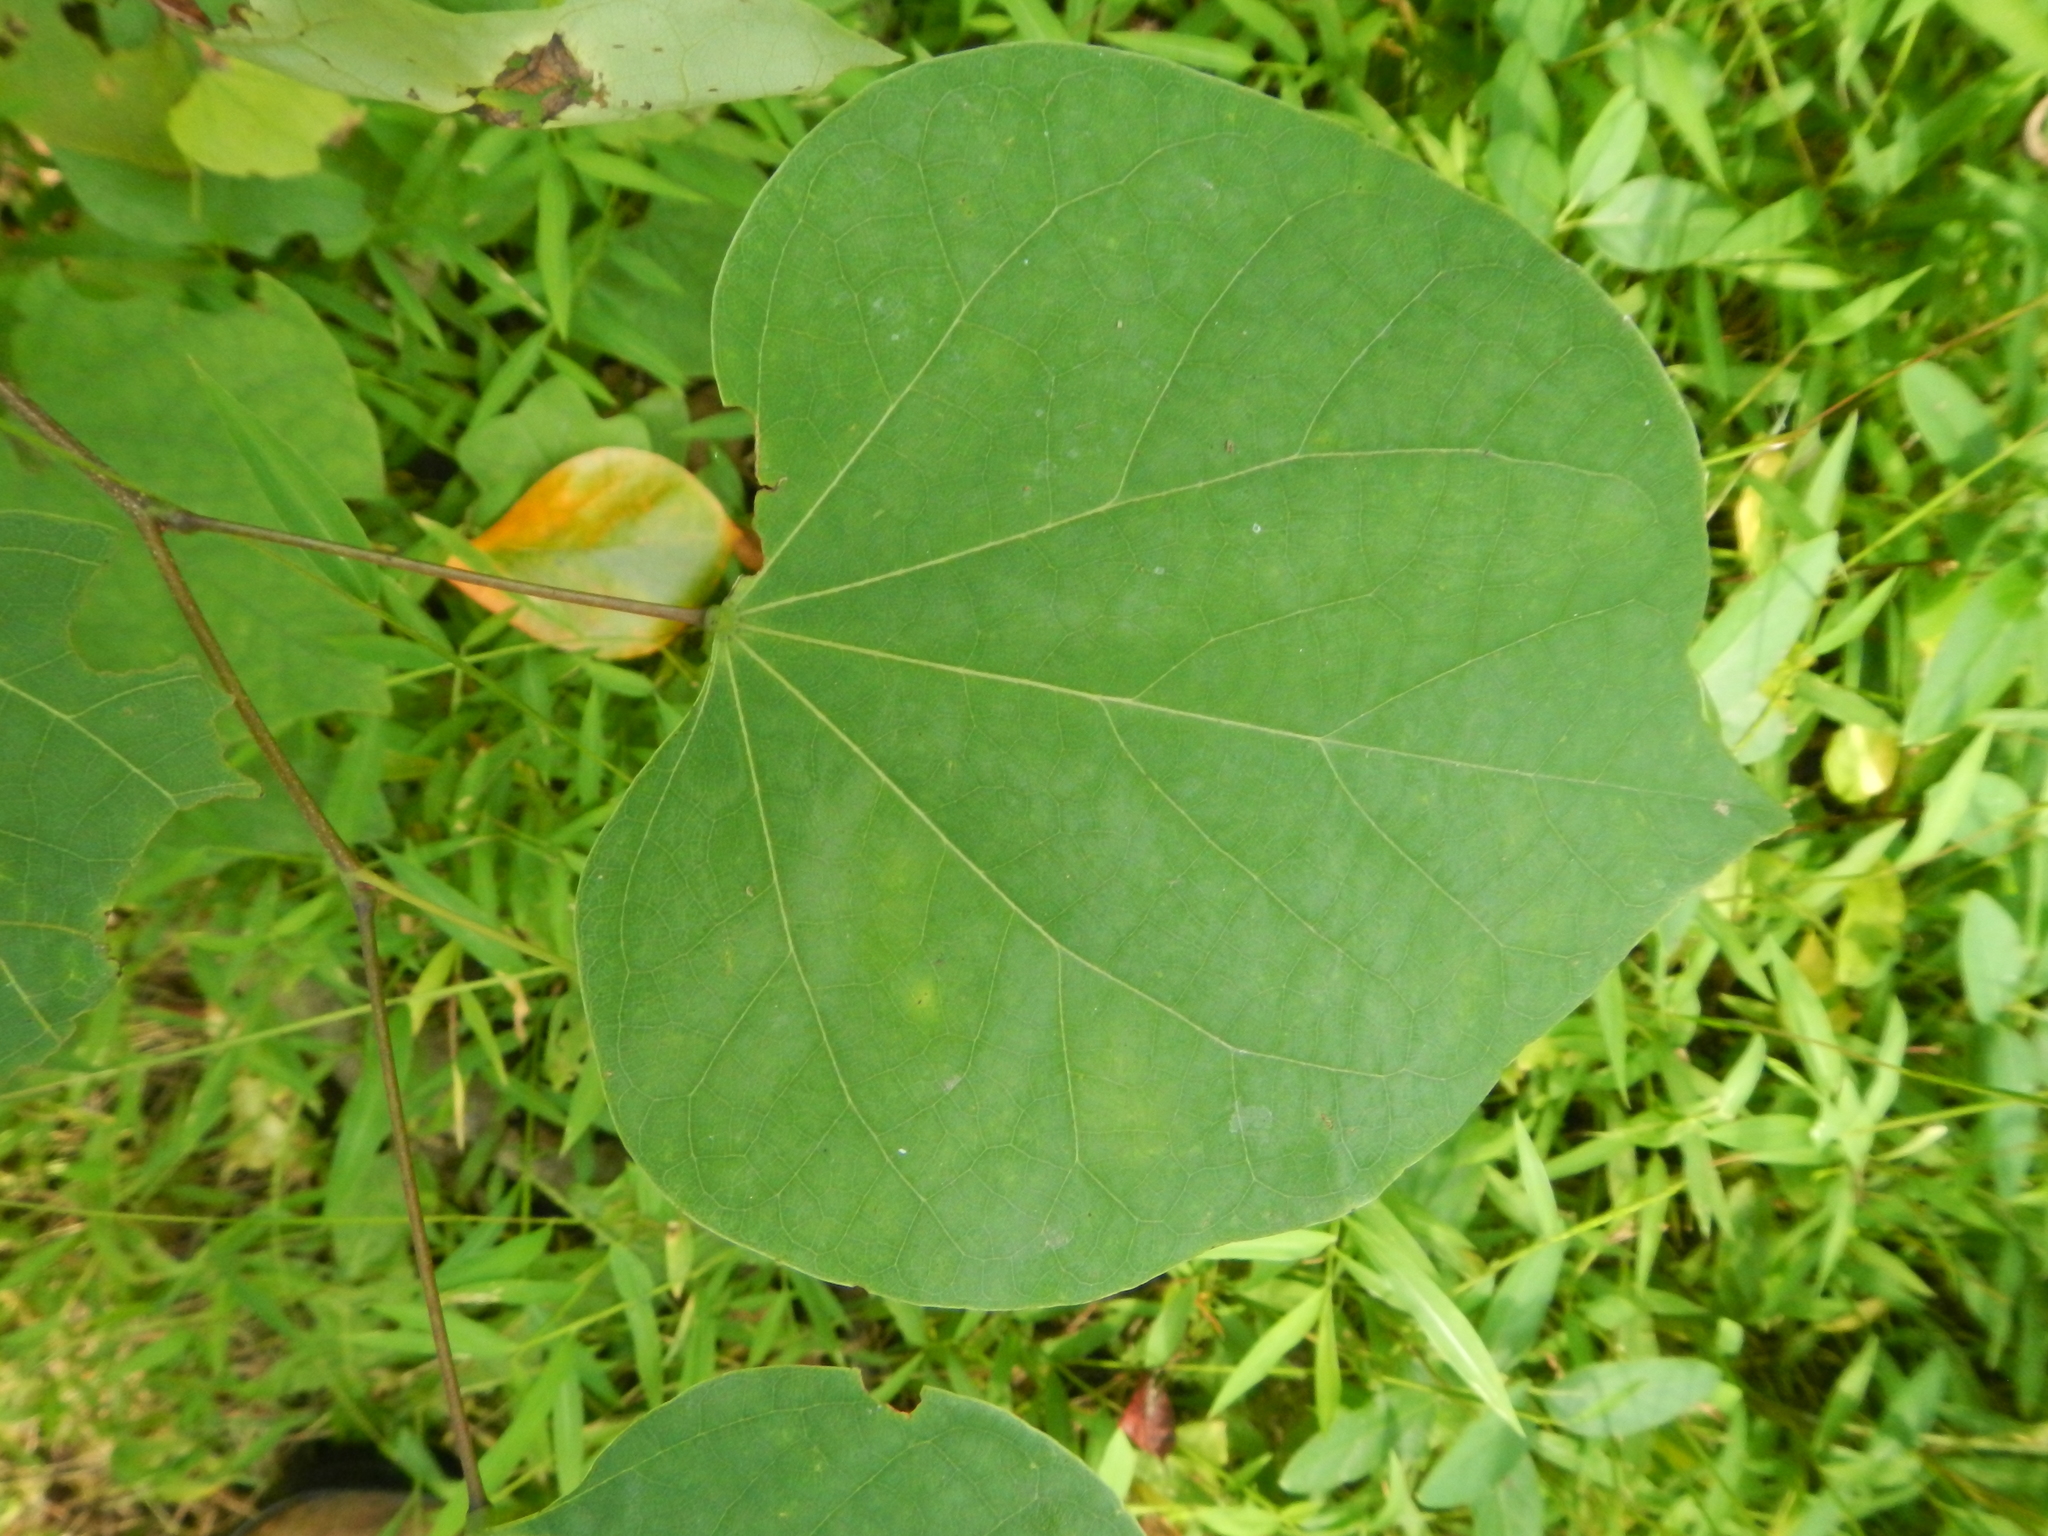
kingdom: Plantae
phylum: Tracheophyta
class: Magnoliopsida
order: Fabales
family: Fabaceae
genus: Cercis
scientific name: Cercis canadensis
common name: Eastern redbud
